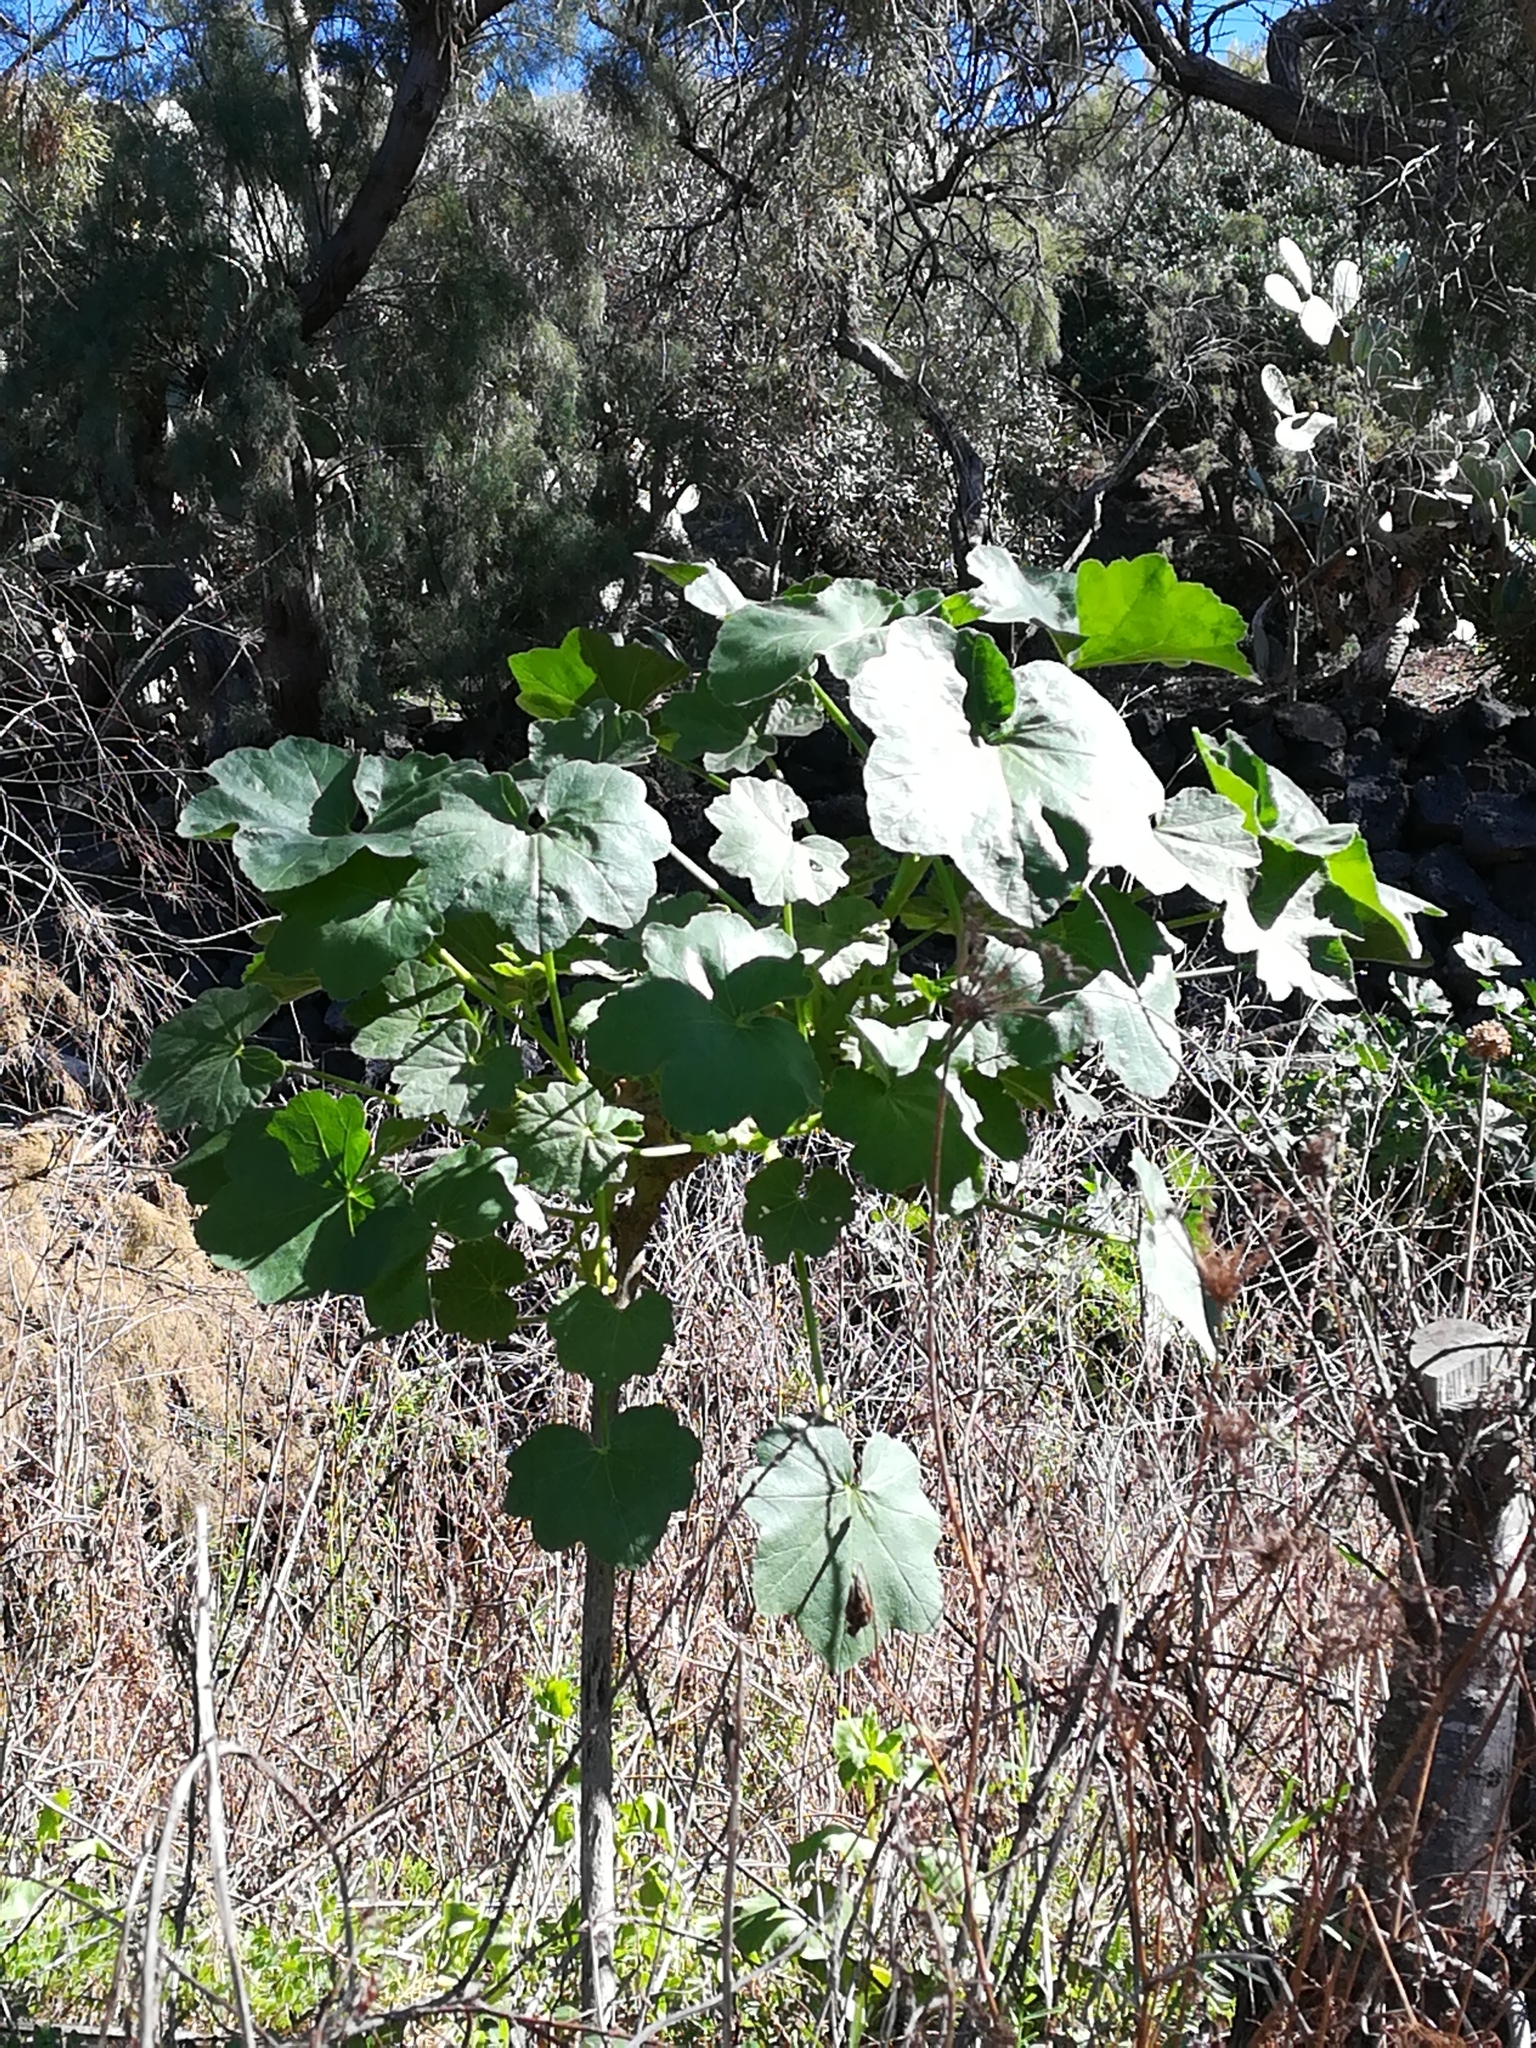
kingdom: Plantae
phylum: Tracheophyta
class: Magnoliopsida
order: Malvales
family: Malvaceae
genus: Malva
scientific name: Malva arborea
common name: Tree mallow
